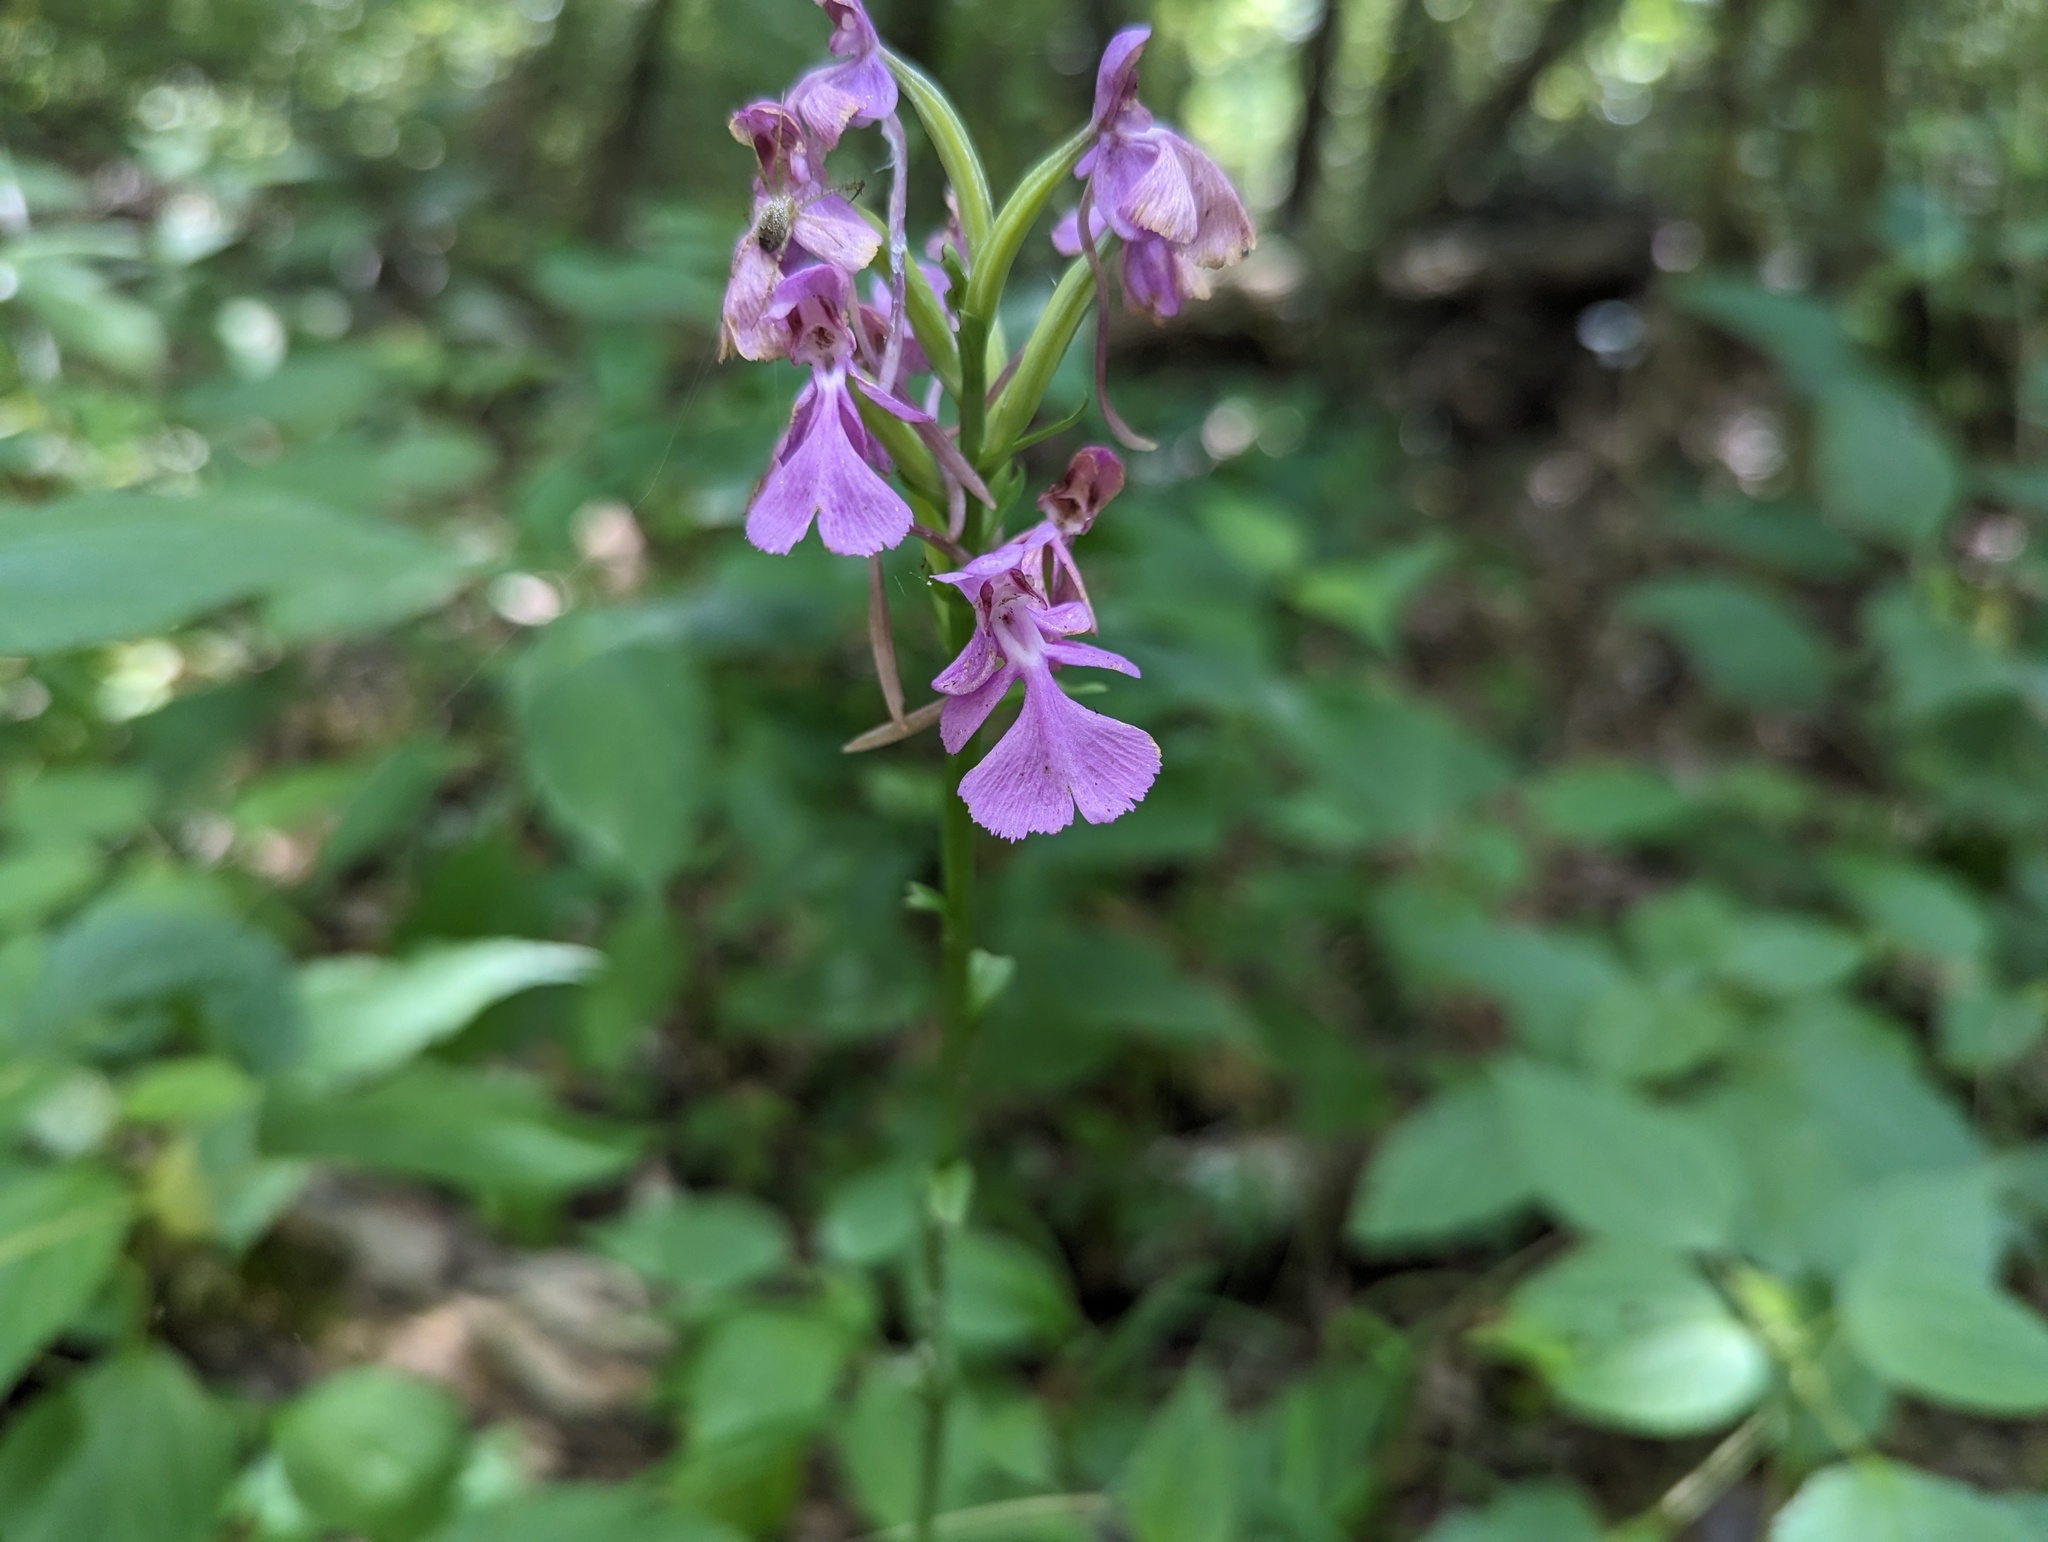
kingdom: Plantae
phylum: Tracheophyta
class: Liliopsida
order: Asparagales
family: Orchidaceae
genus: Platanthera
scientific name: Platanthera peramoena
